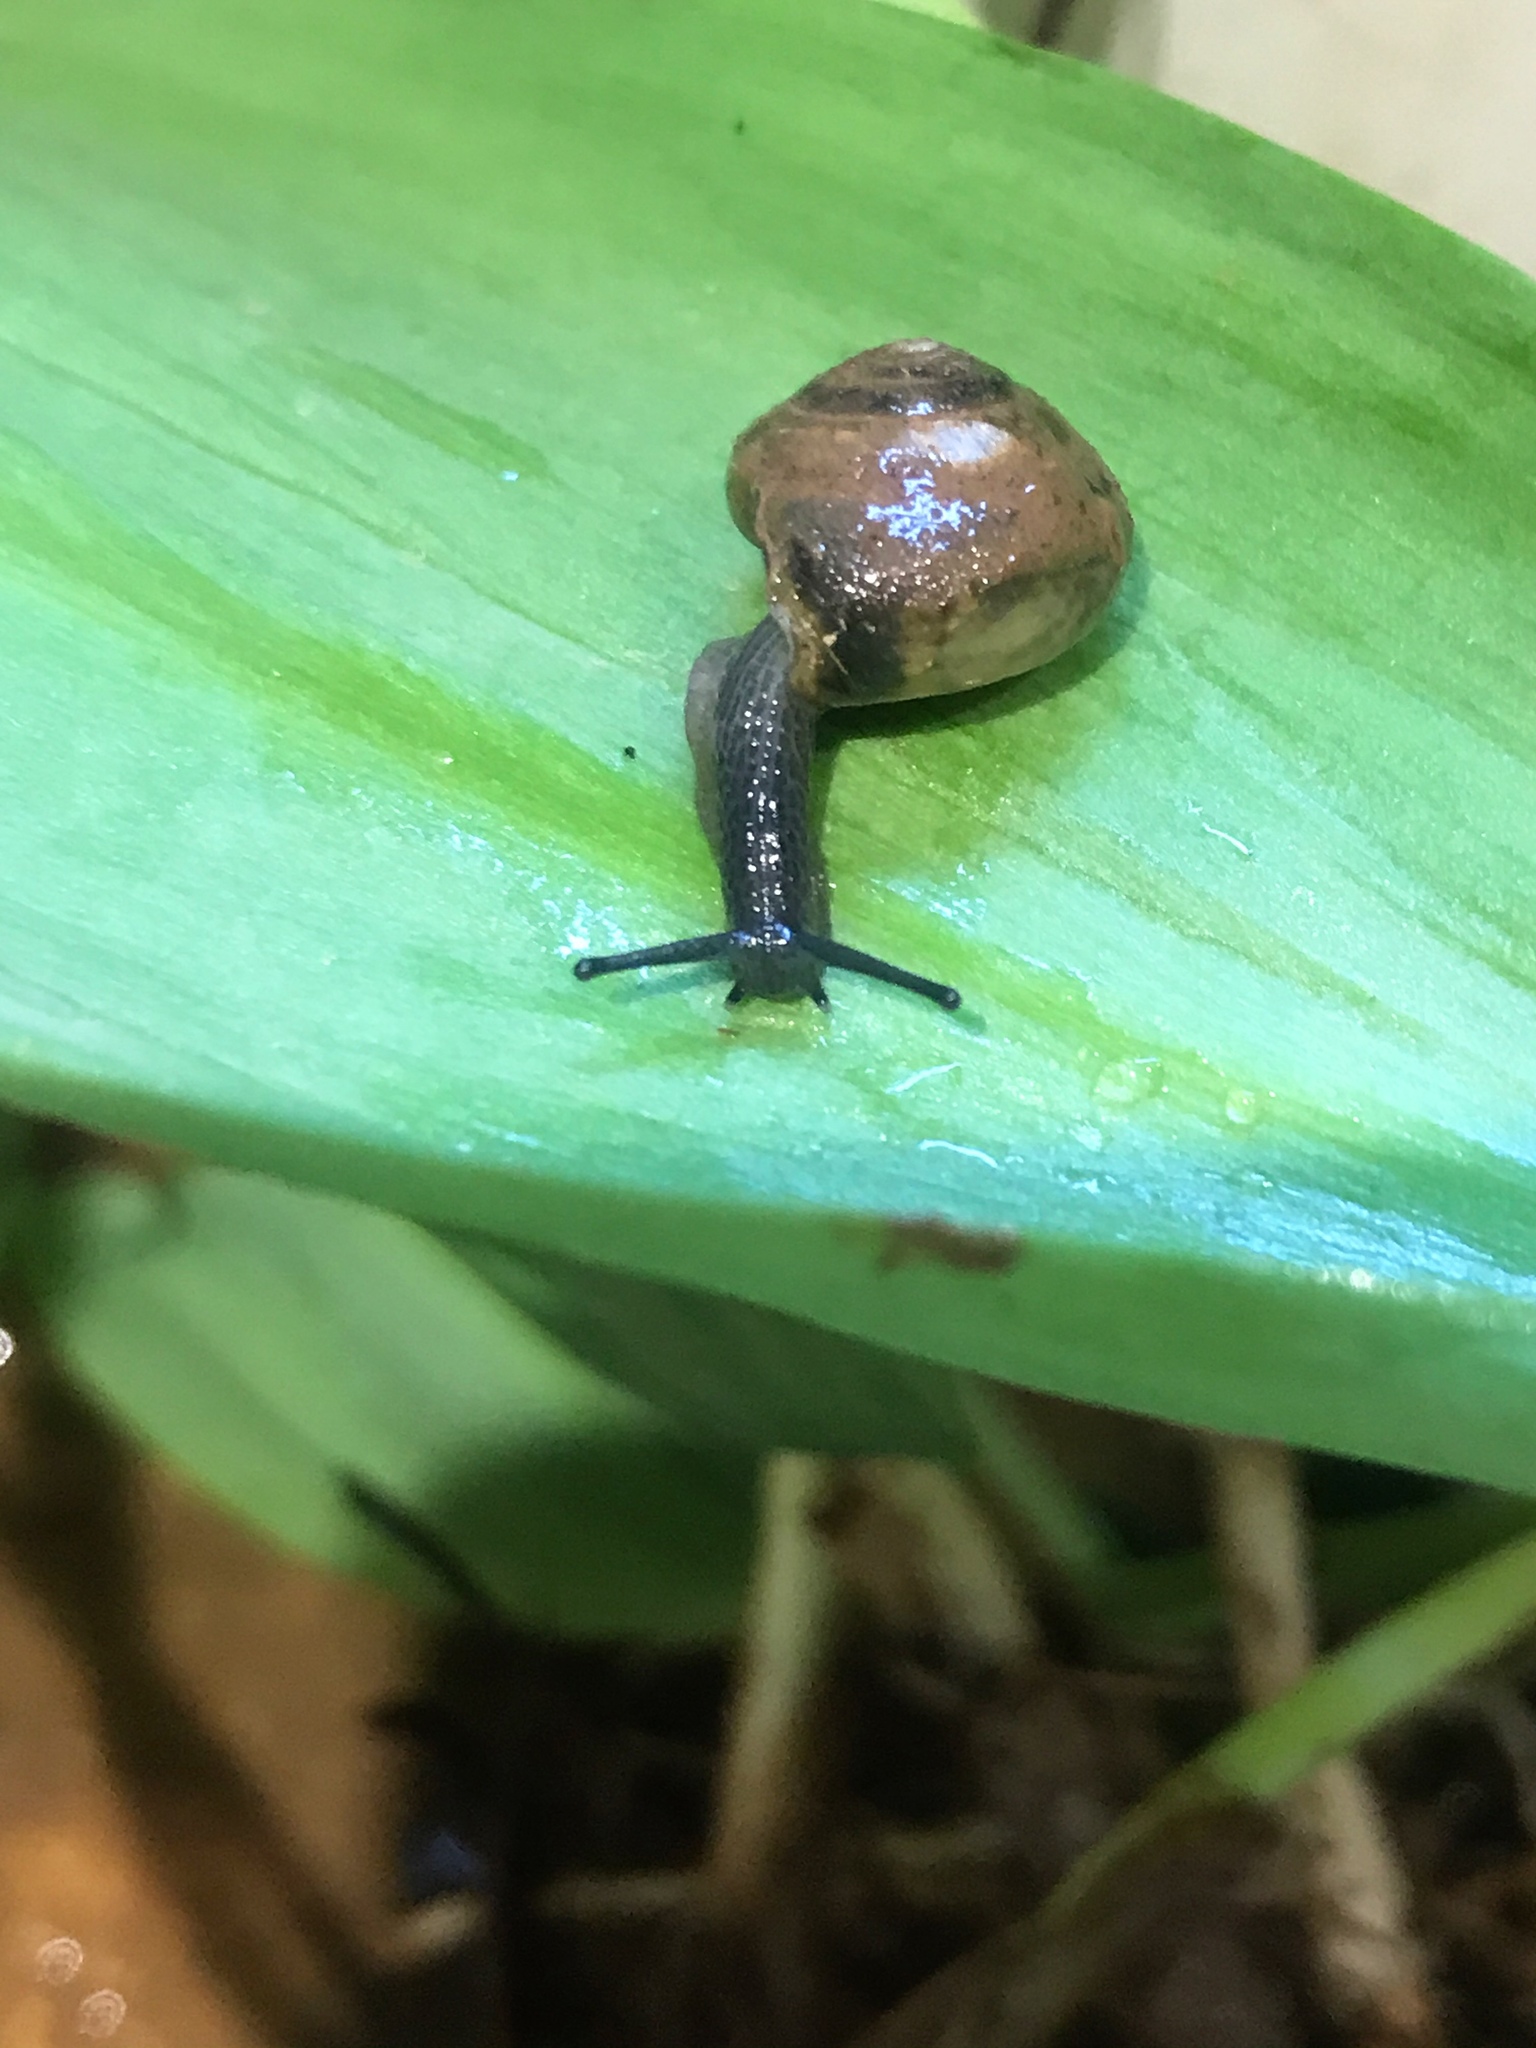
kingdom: Animalia
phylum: Mollusca
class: Gastropoda
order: Stylommatophora
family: Oxychilidae
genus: Oxychilus
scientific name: Oxychilus draparnaudi
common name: Draparnaud's glass snail
